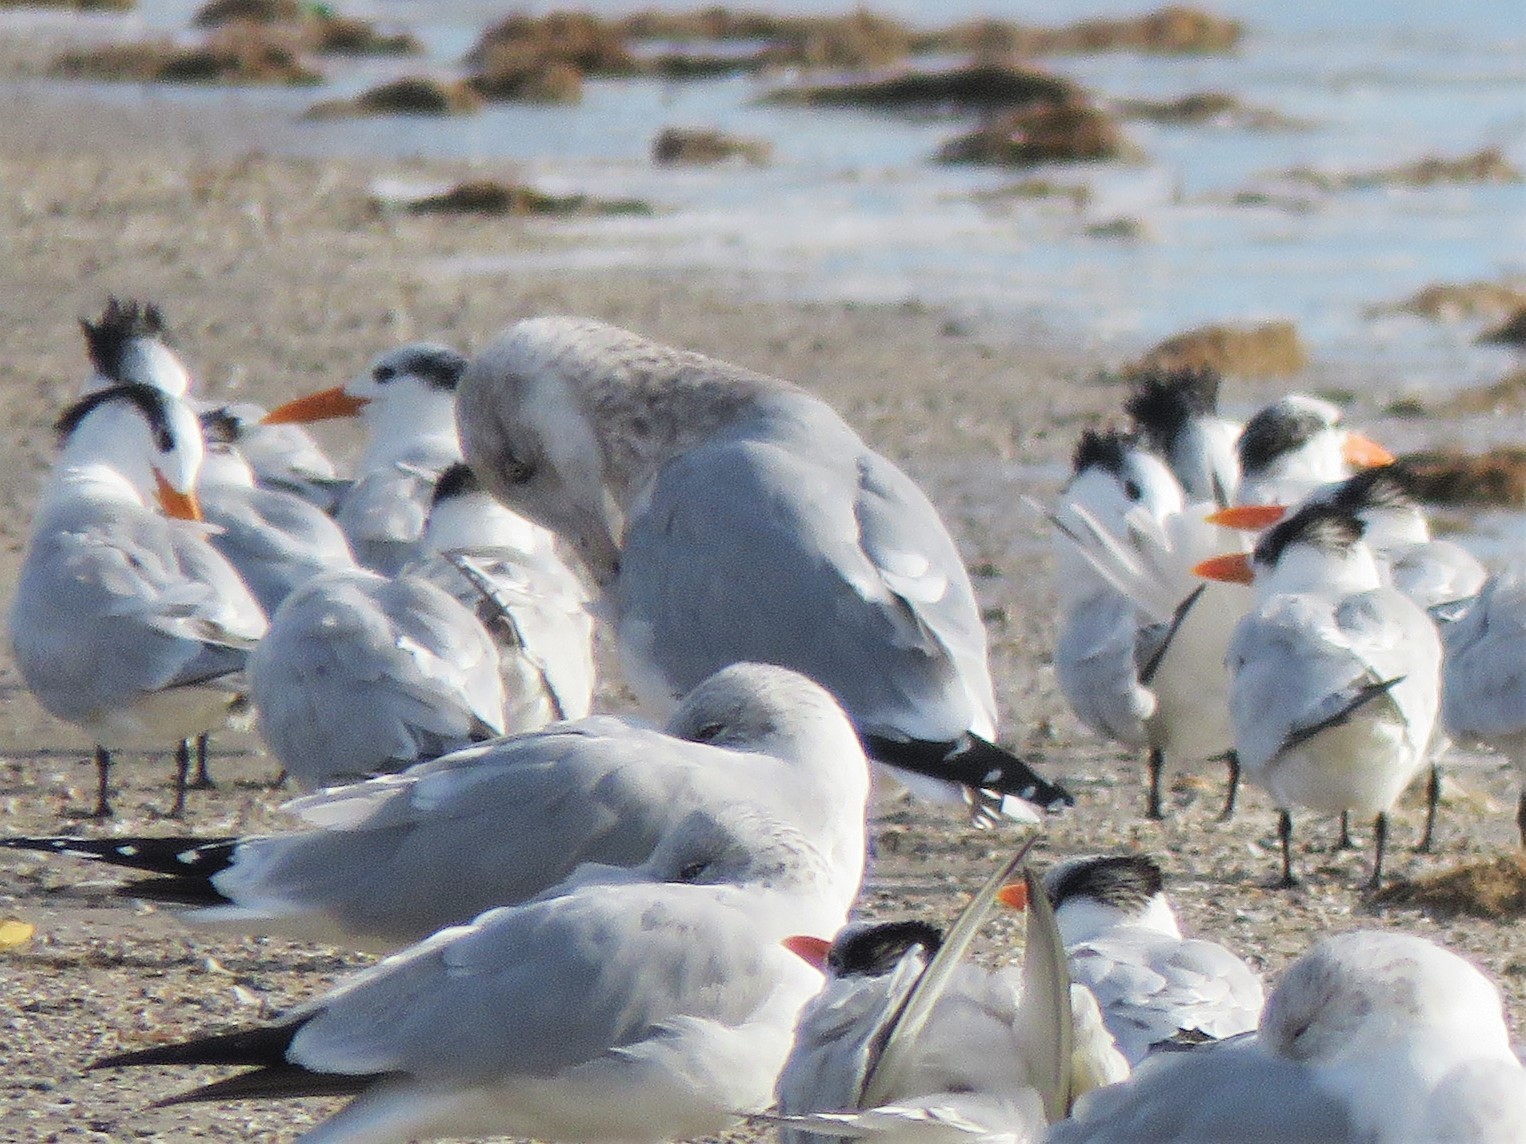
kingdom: Animalia
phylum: Chordata
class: Aves
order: Charadriiformes
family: Laridae
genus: Larus
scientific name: Larus argentatus
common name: Herring gull
